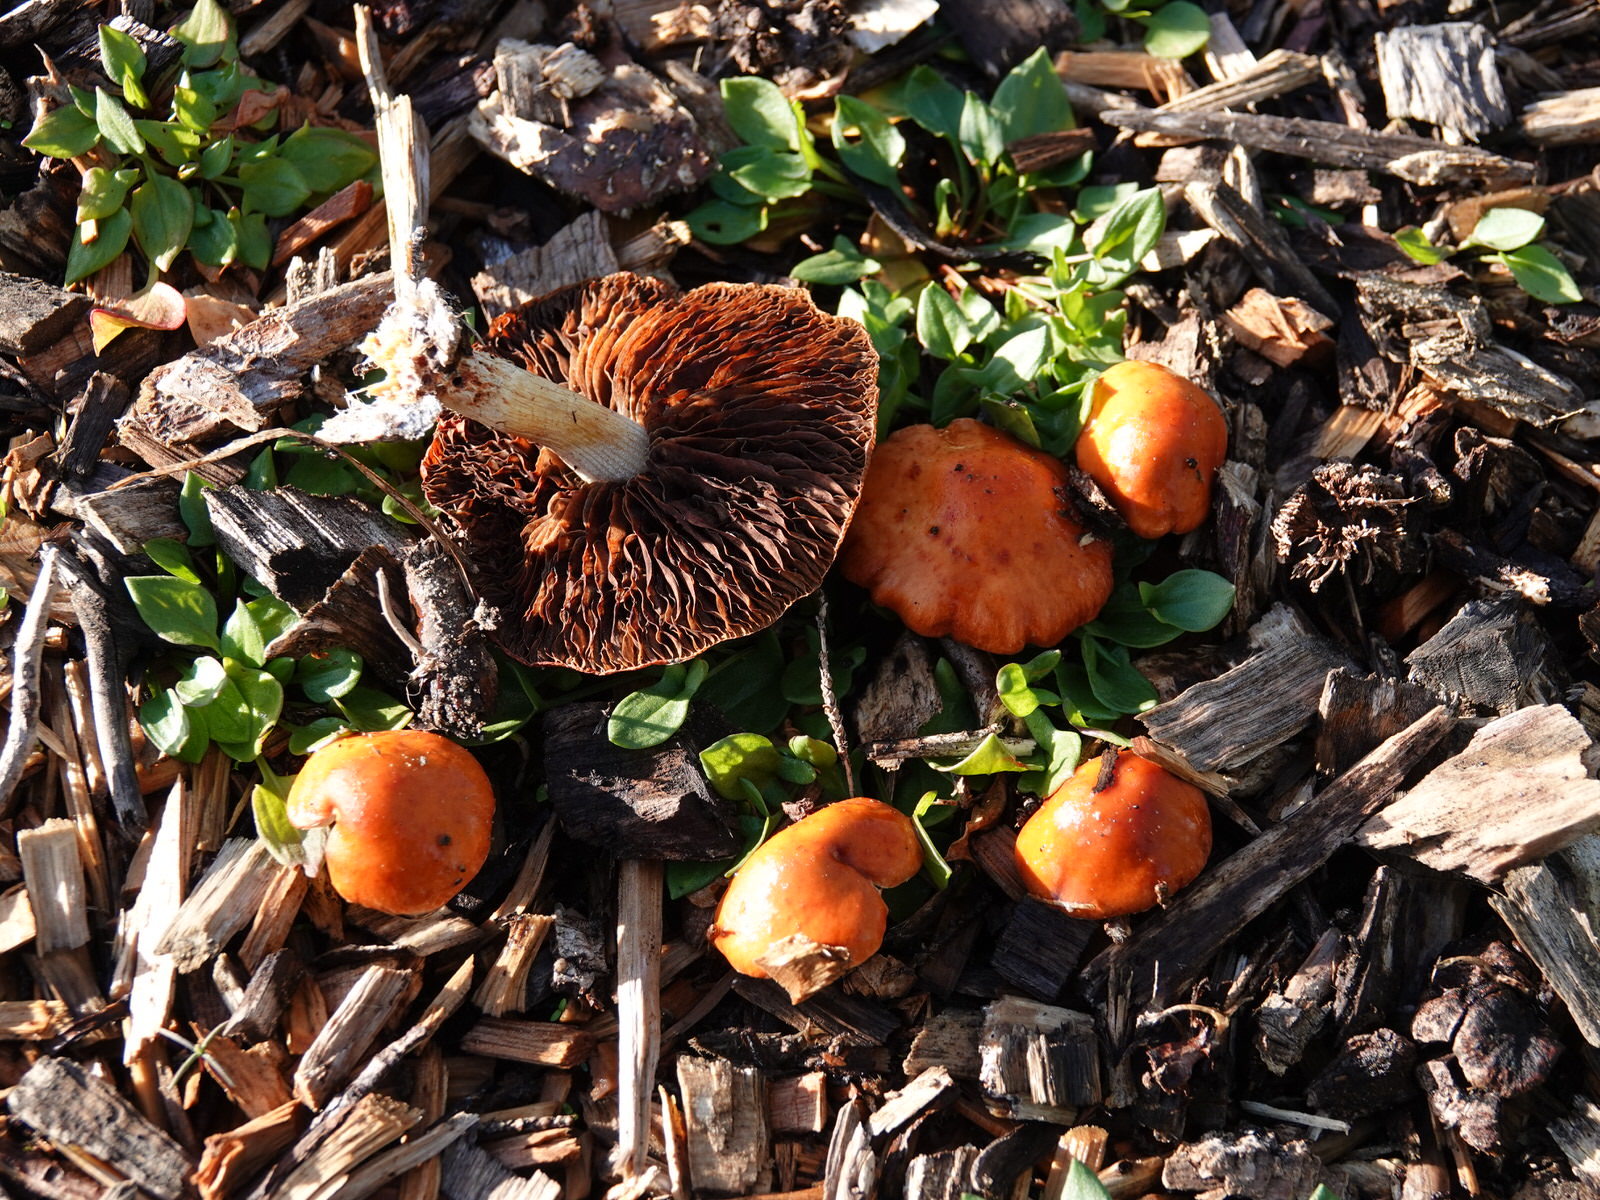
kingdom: Fungi
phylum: Basidiomycota
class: Agaricomycetes
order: Agaricales
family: Strophariaceae
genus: Leratiomyces
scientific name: Leratiomyces ceres
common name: Redlead roundhead
